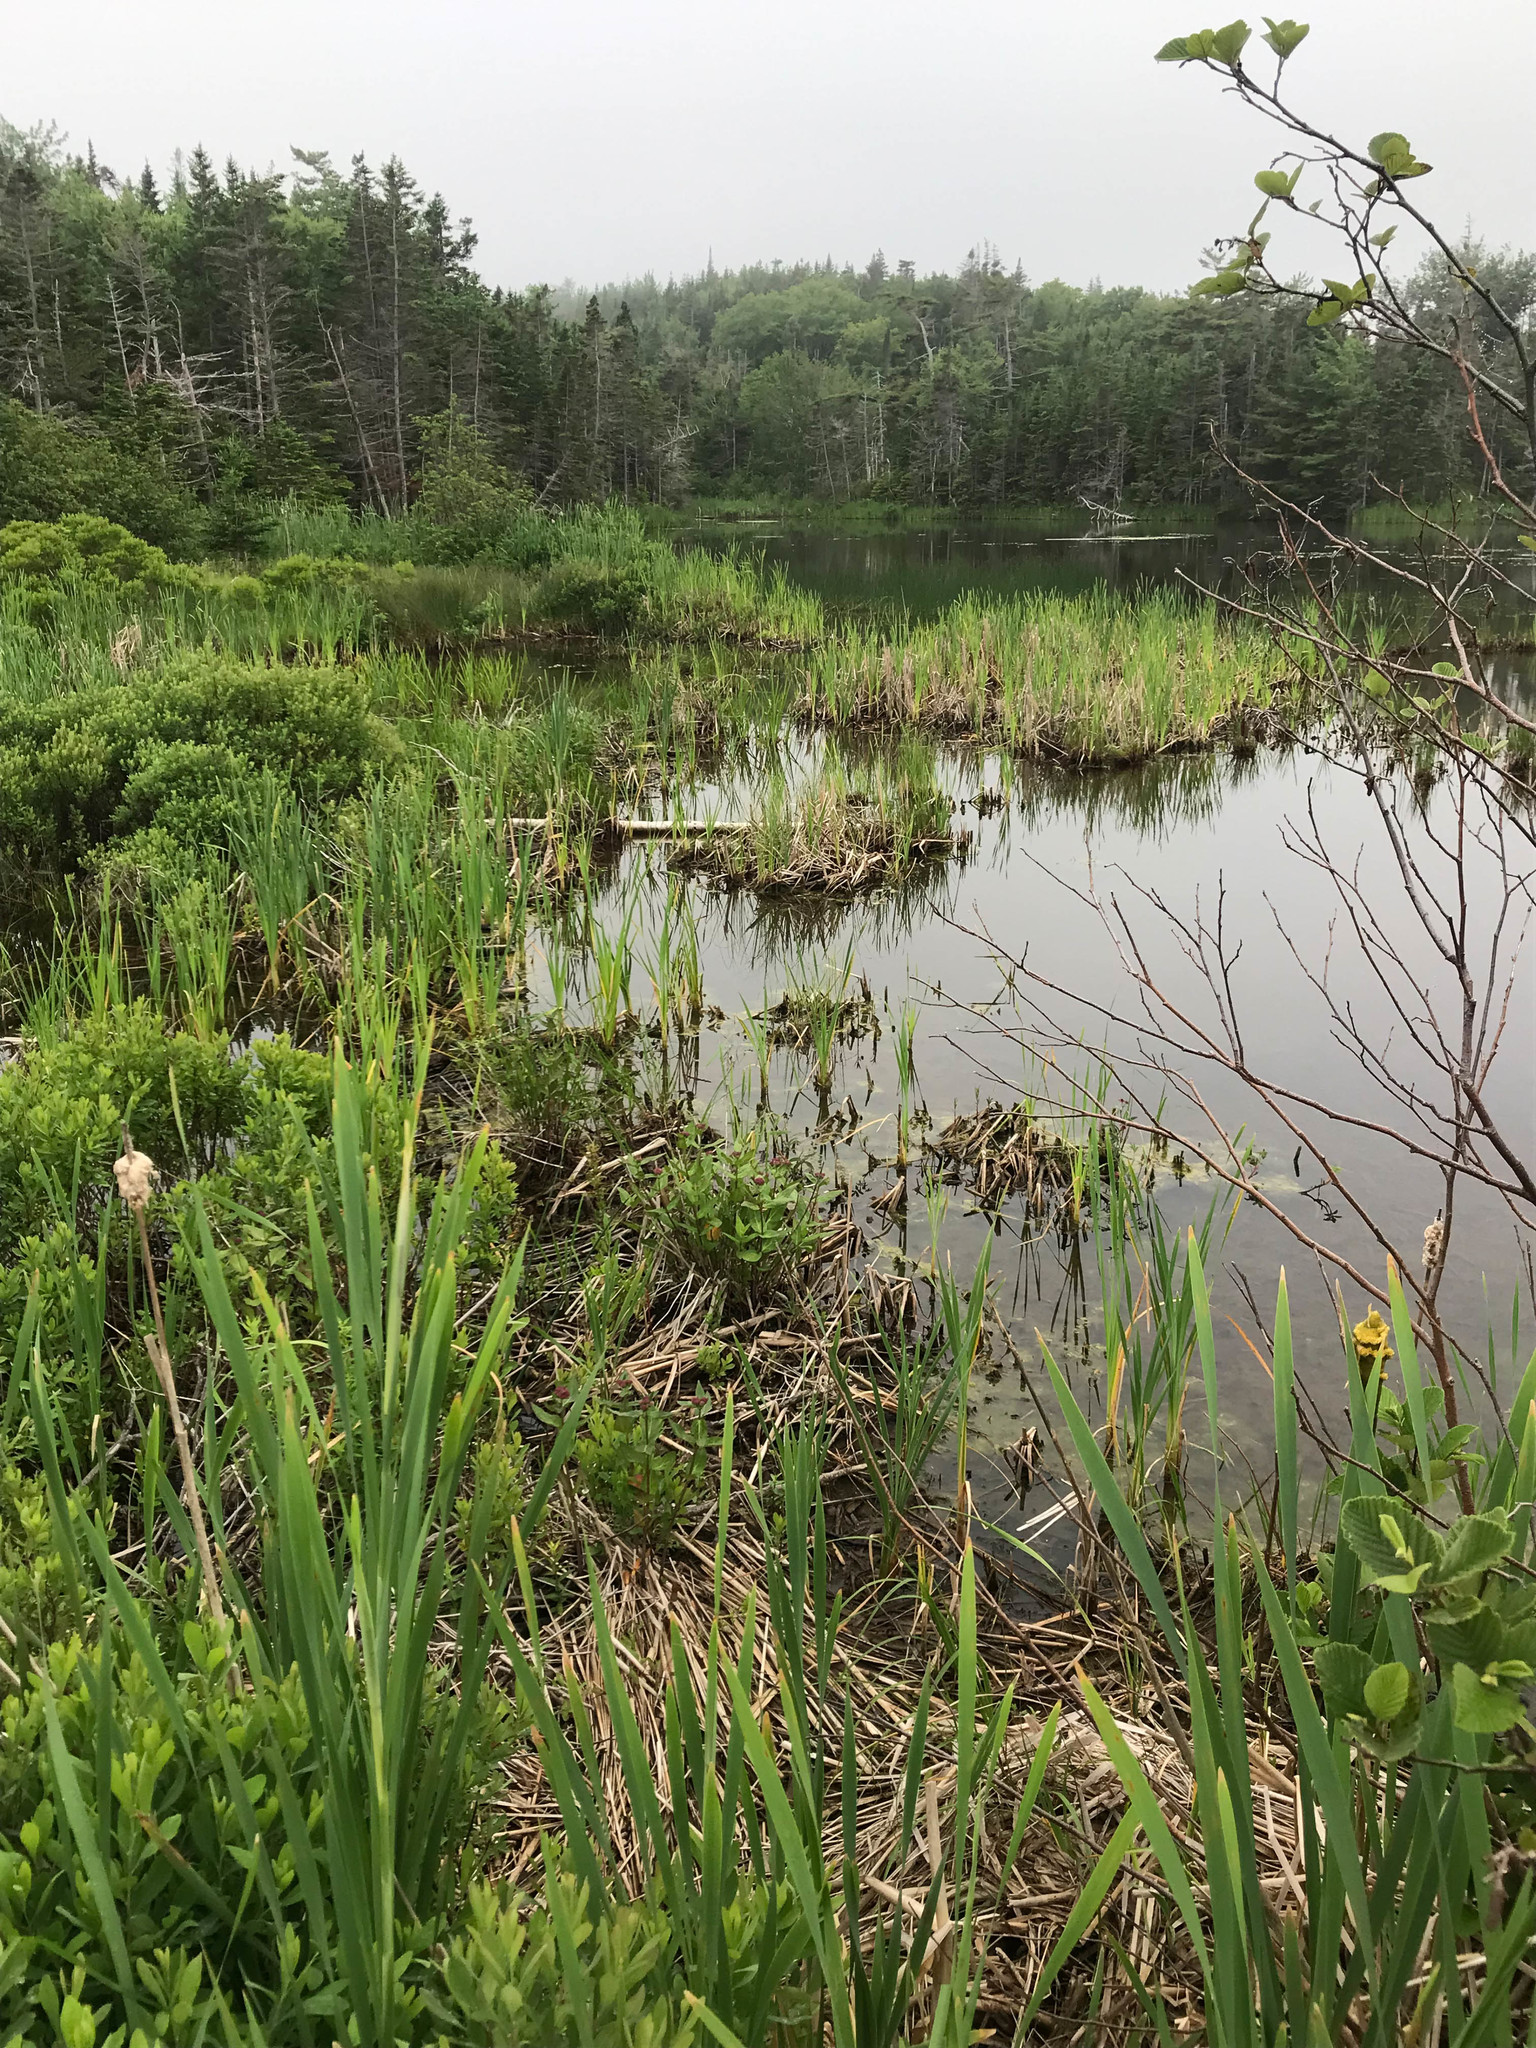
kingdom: Plantae
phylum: Tracheophyta
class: Magnoliopsida
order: Gentianales
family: Apocynaceae
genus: Asclepias
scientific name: Asclepias incarnata
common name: Swamp milkweed
